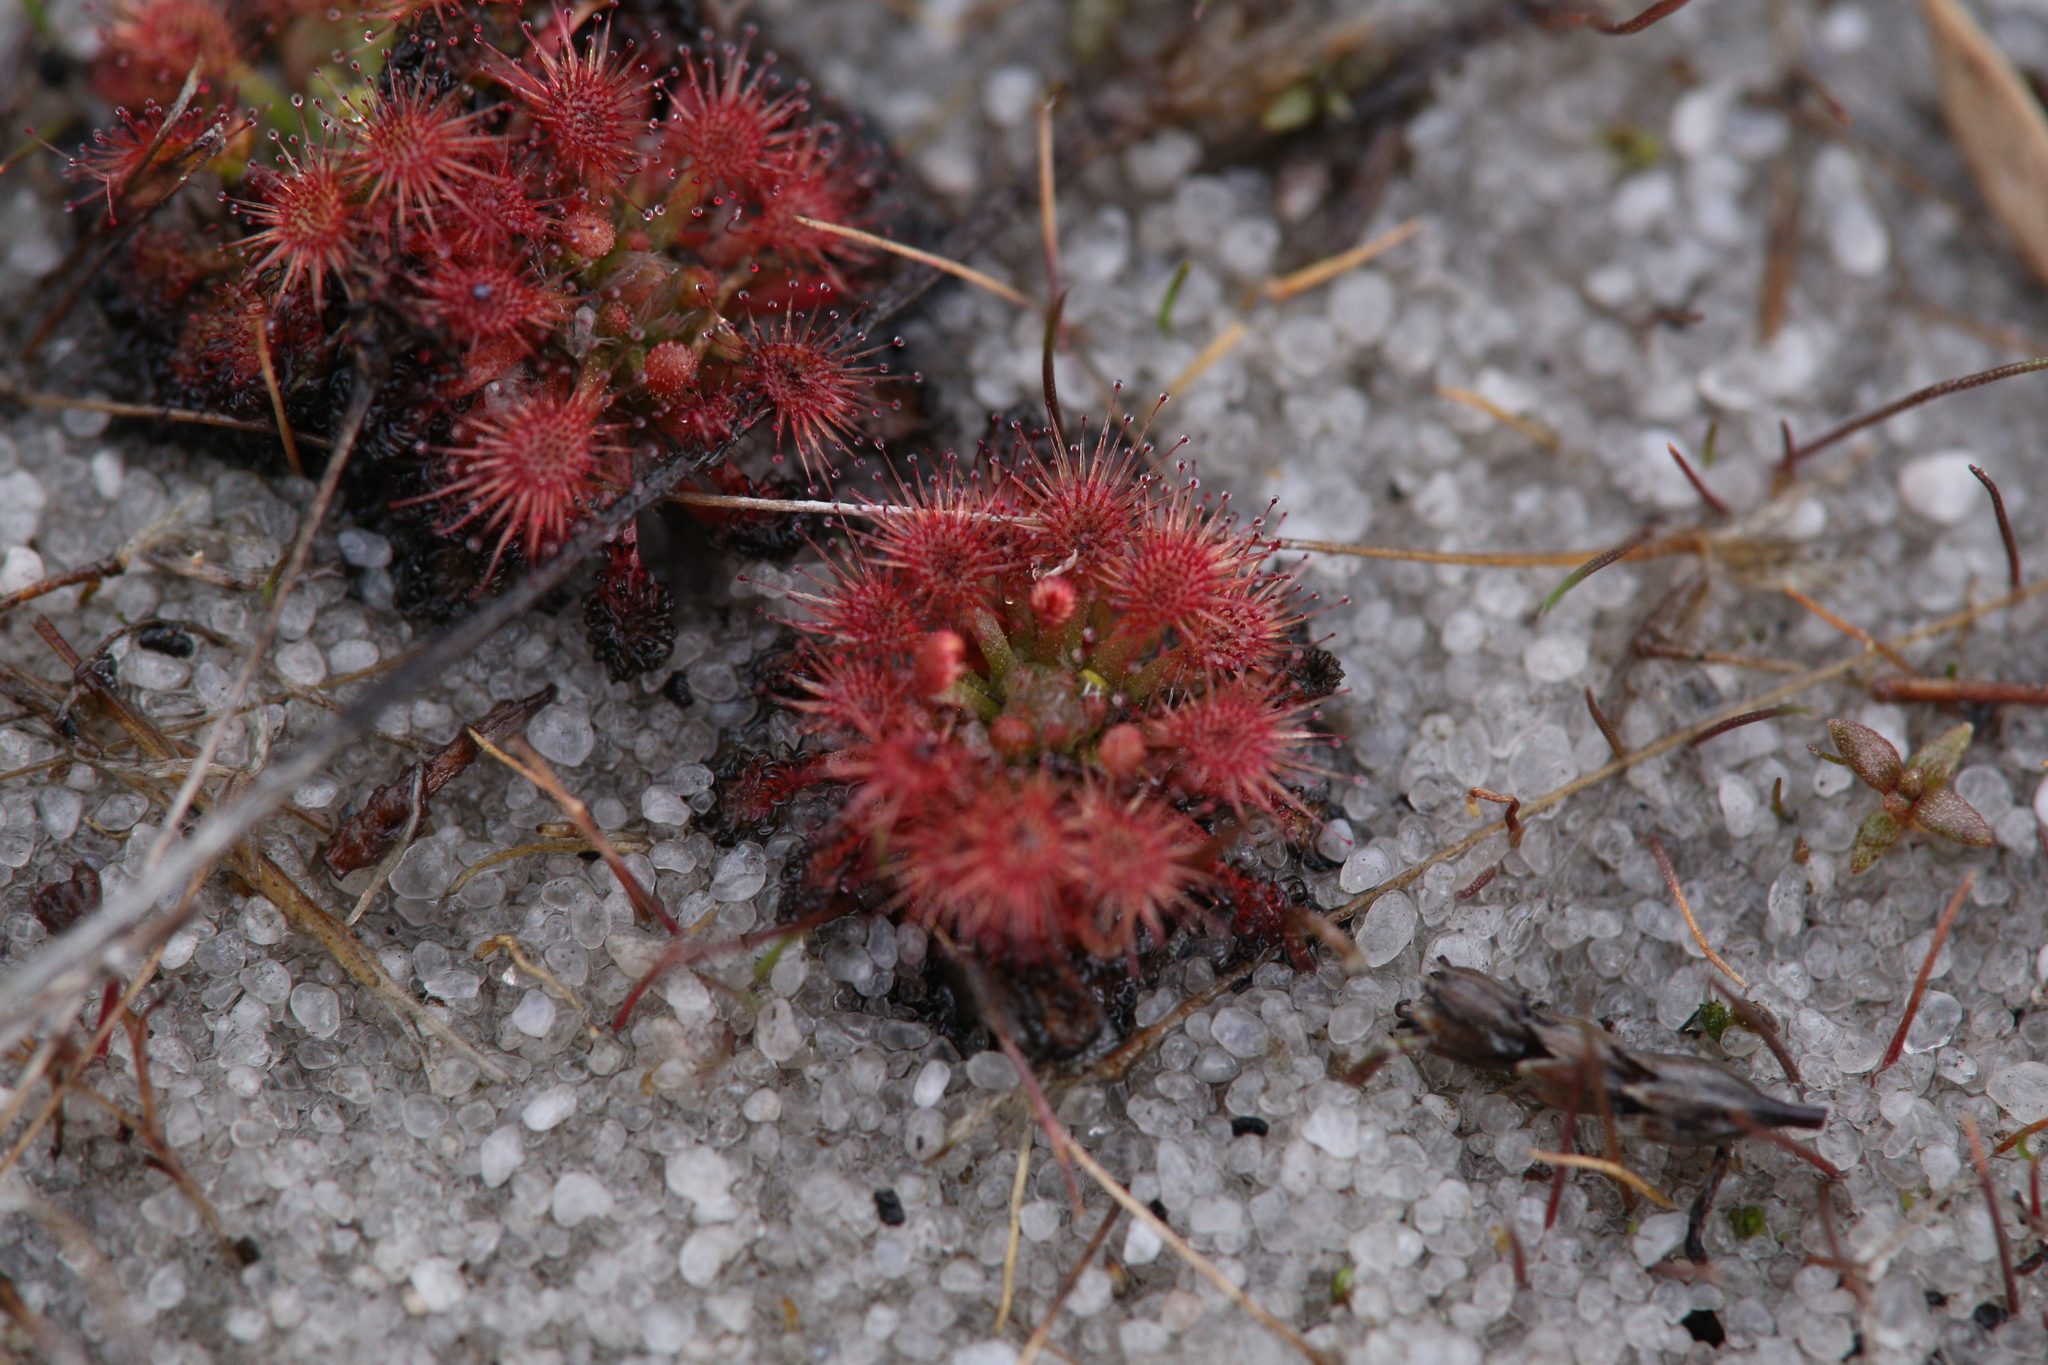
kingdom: Plantae
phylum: Tracheophyta
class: Magnoliopsida
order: Caryophyllales
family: Droseraceae
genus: Drosera
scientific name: Drosera patens
